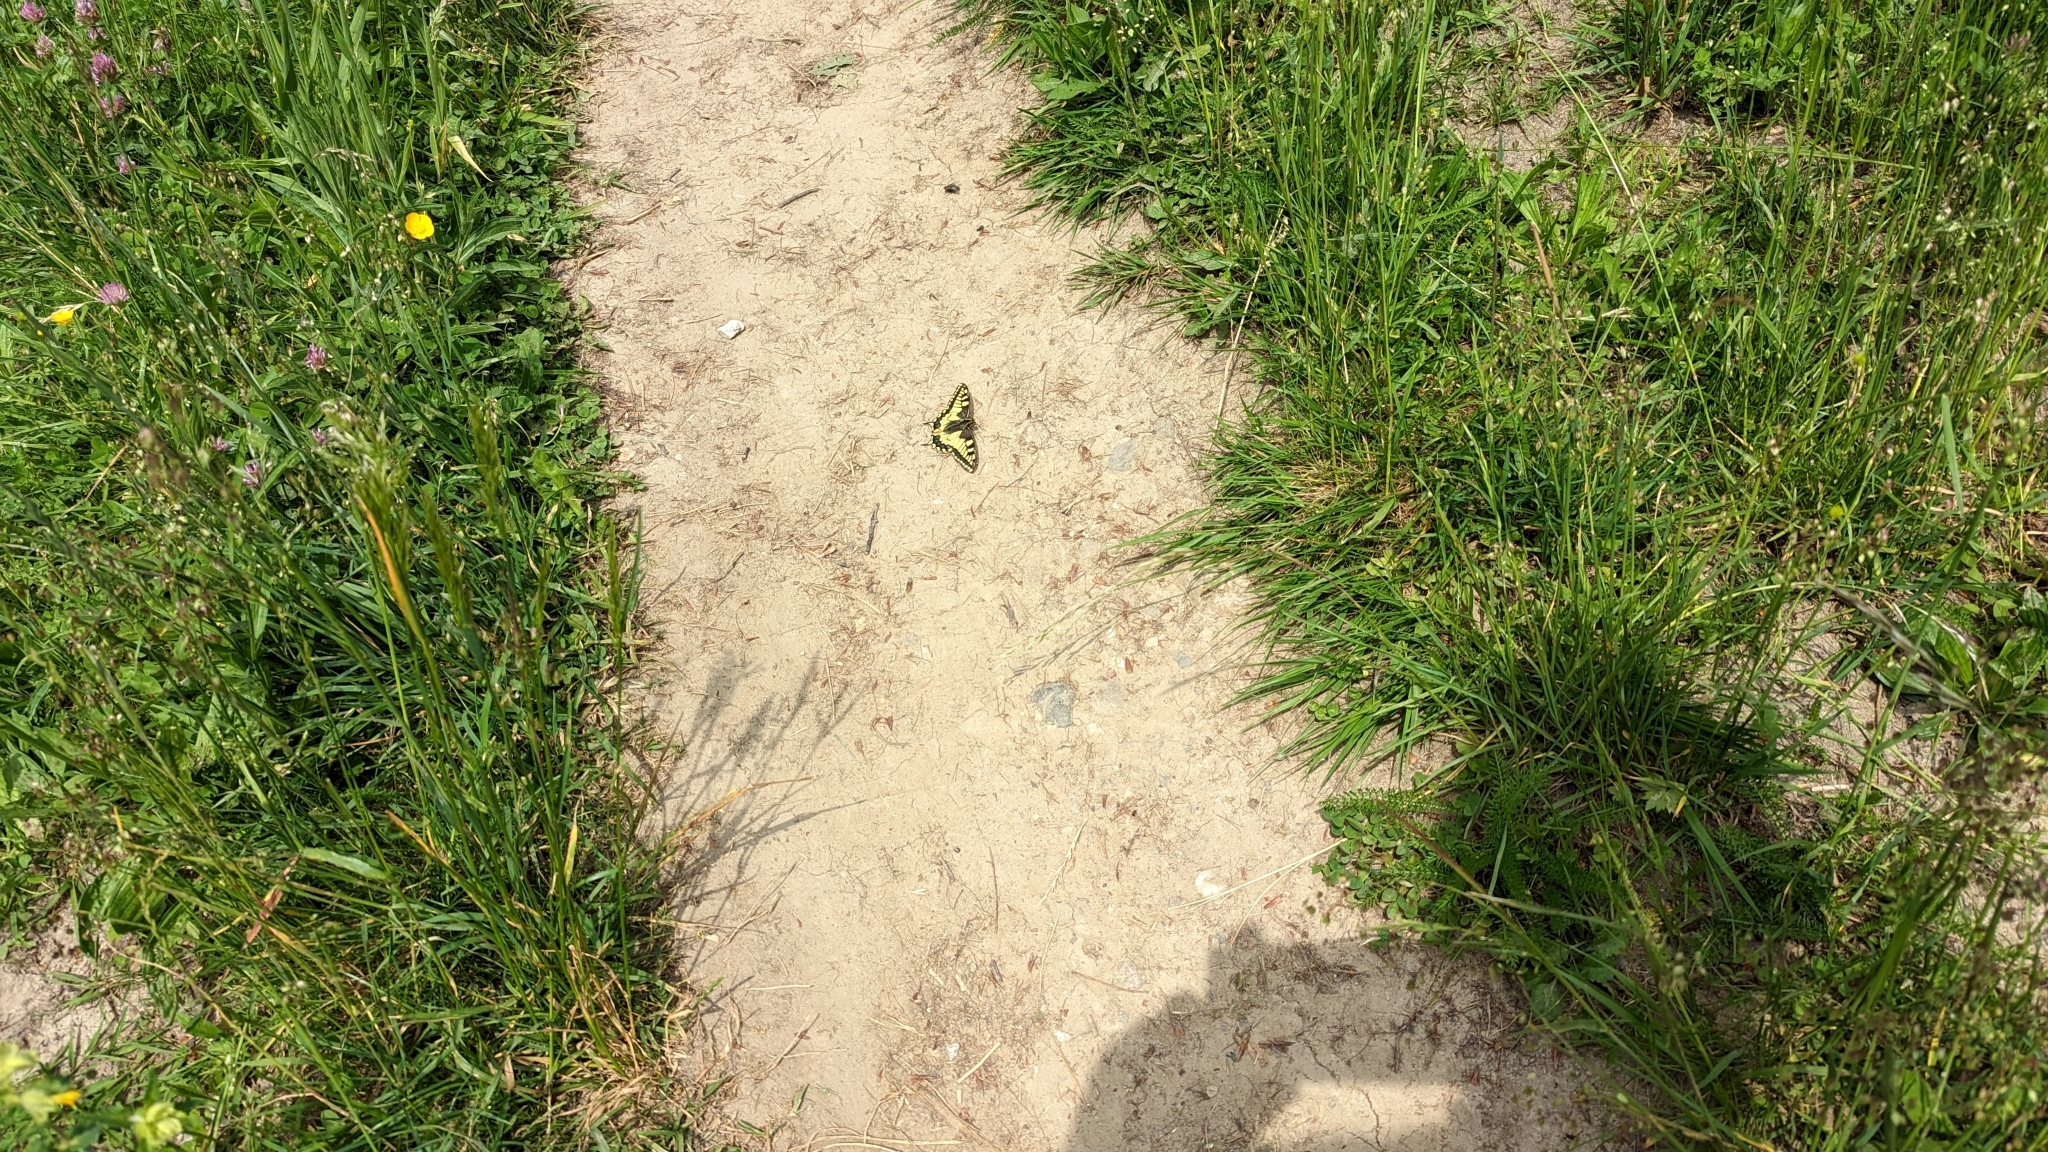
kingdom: Animalia
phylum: Arthropoda
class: Insecta
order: Lepidoptera
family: Papilionidae
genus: Papilio
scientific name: Papilio machaon
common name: Swallowtail
